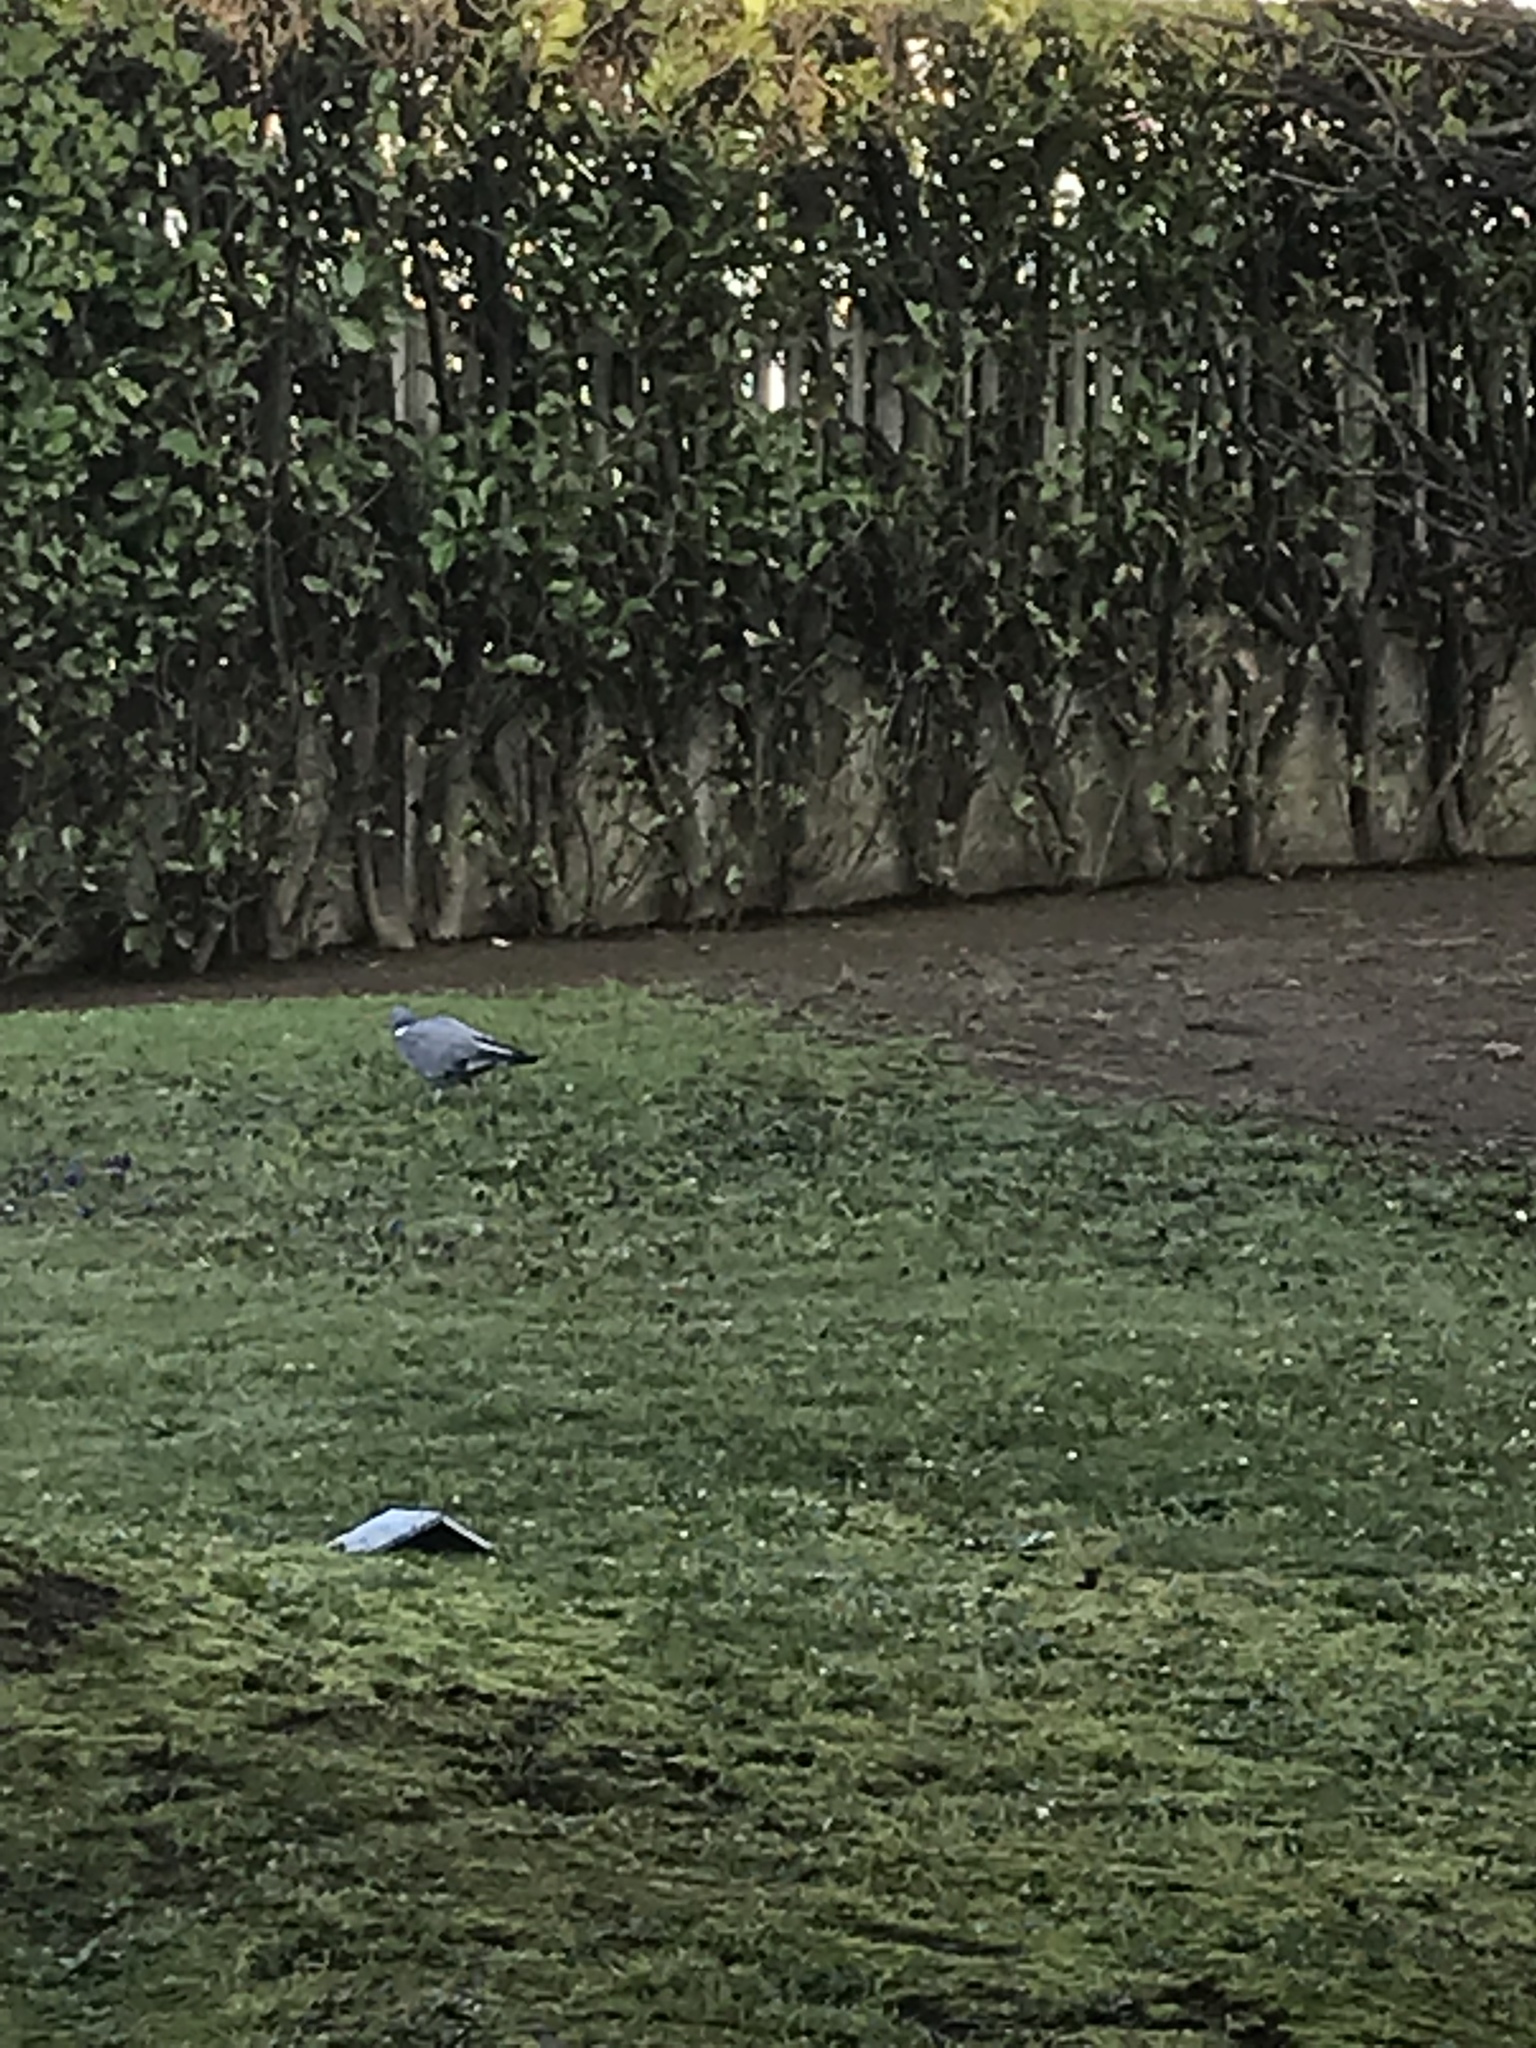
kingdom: Animalia
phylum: Chordata
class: Aves
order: Columbiformes
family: Columbidae
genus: Columba
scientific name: Columba palumbus
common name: Common wood pigeon
